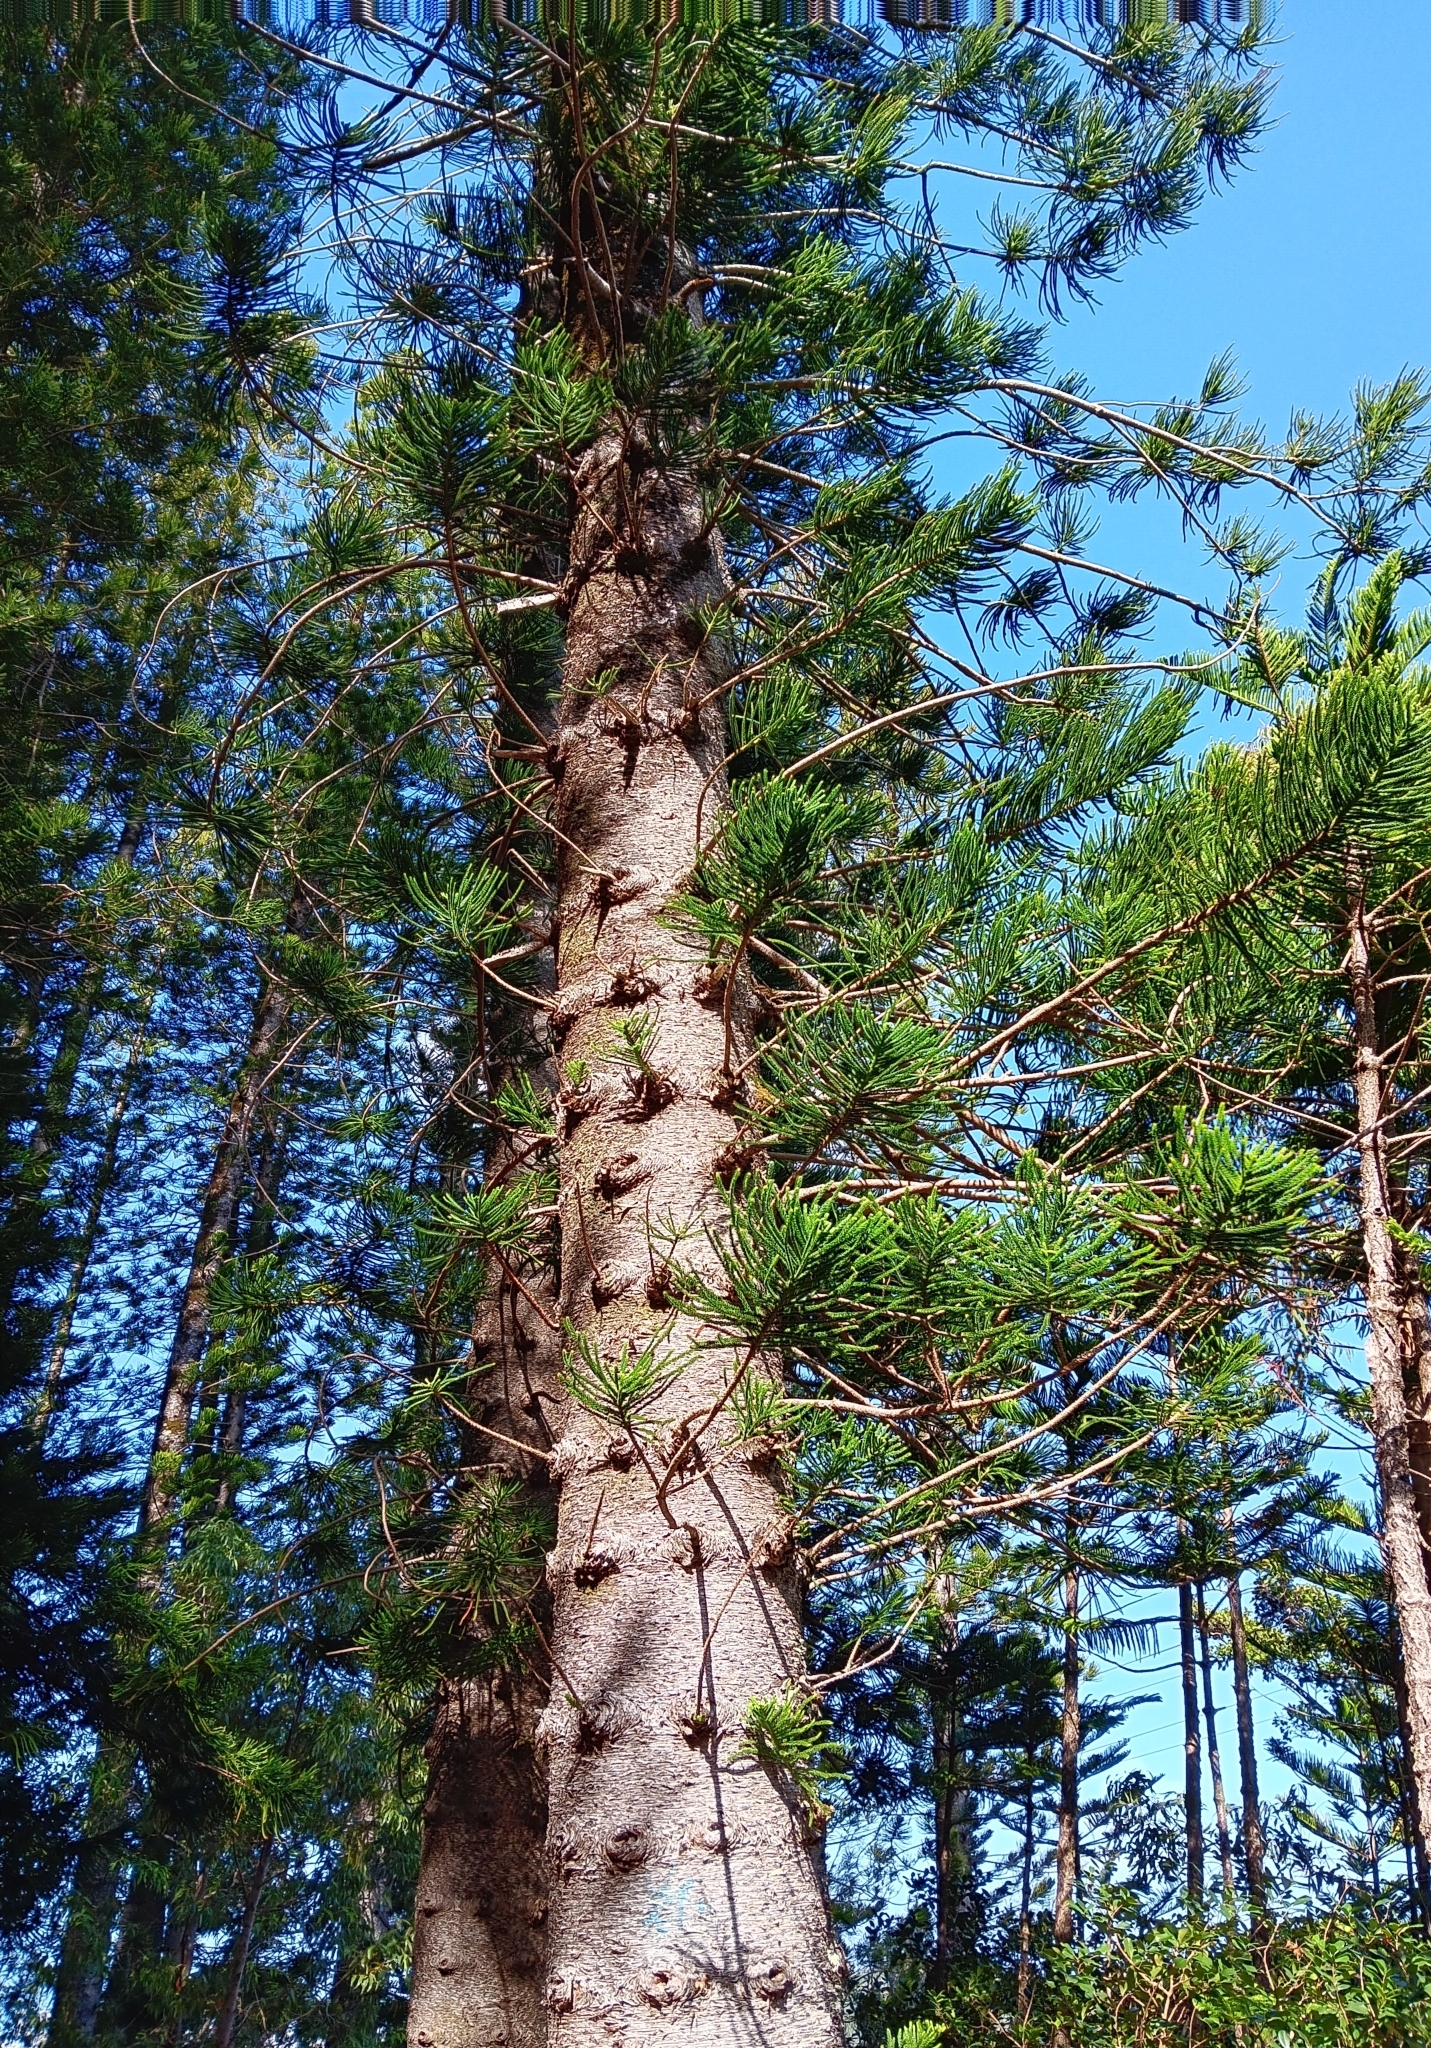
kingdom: Plantae
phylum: Tracheophyta
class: Pinopsida
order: Pinales
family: Araucariaceae
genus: Araucaria
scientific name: Araucaria columnaris
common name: Coral reef araucaria
